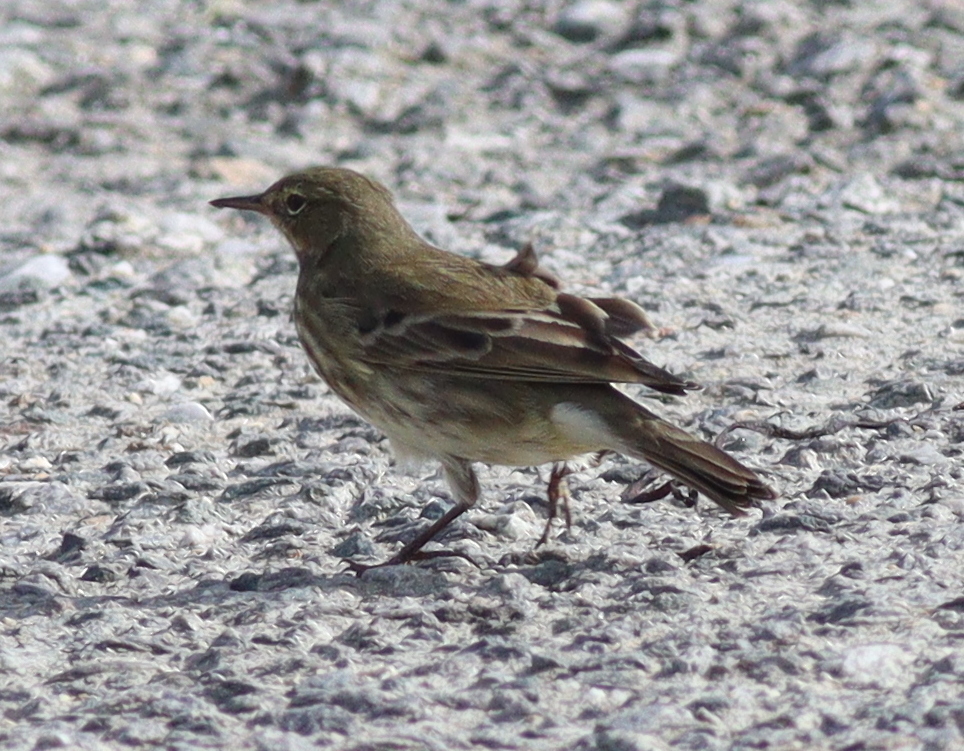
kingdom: Animalia
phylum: Chordata
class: Aves
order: Passeriformes
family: Motacillidae
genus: Anthus
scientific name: Anthus petrosus
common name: Eurasian rock pipit
